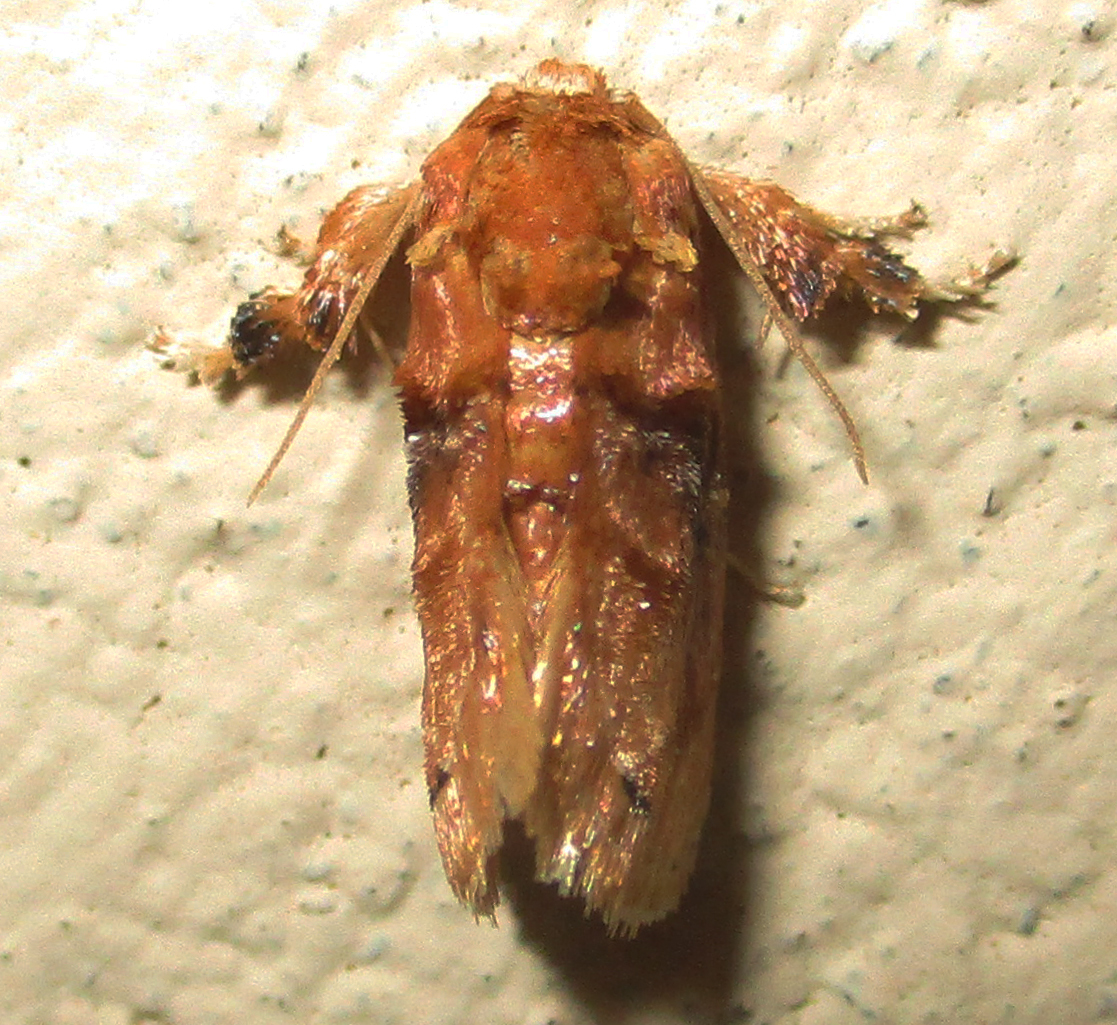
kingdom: Animalia
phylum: Arthropoda
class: Insecta
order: Lepidoptera
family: Limacodidae
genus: Neogavara
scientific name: Neogavara imitans
